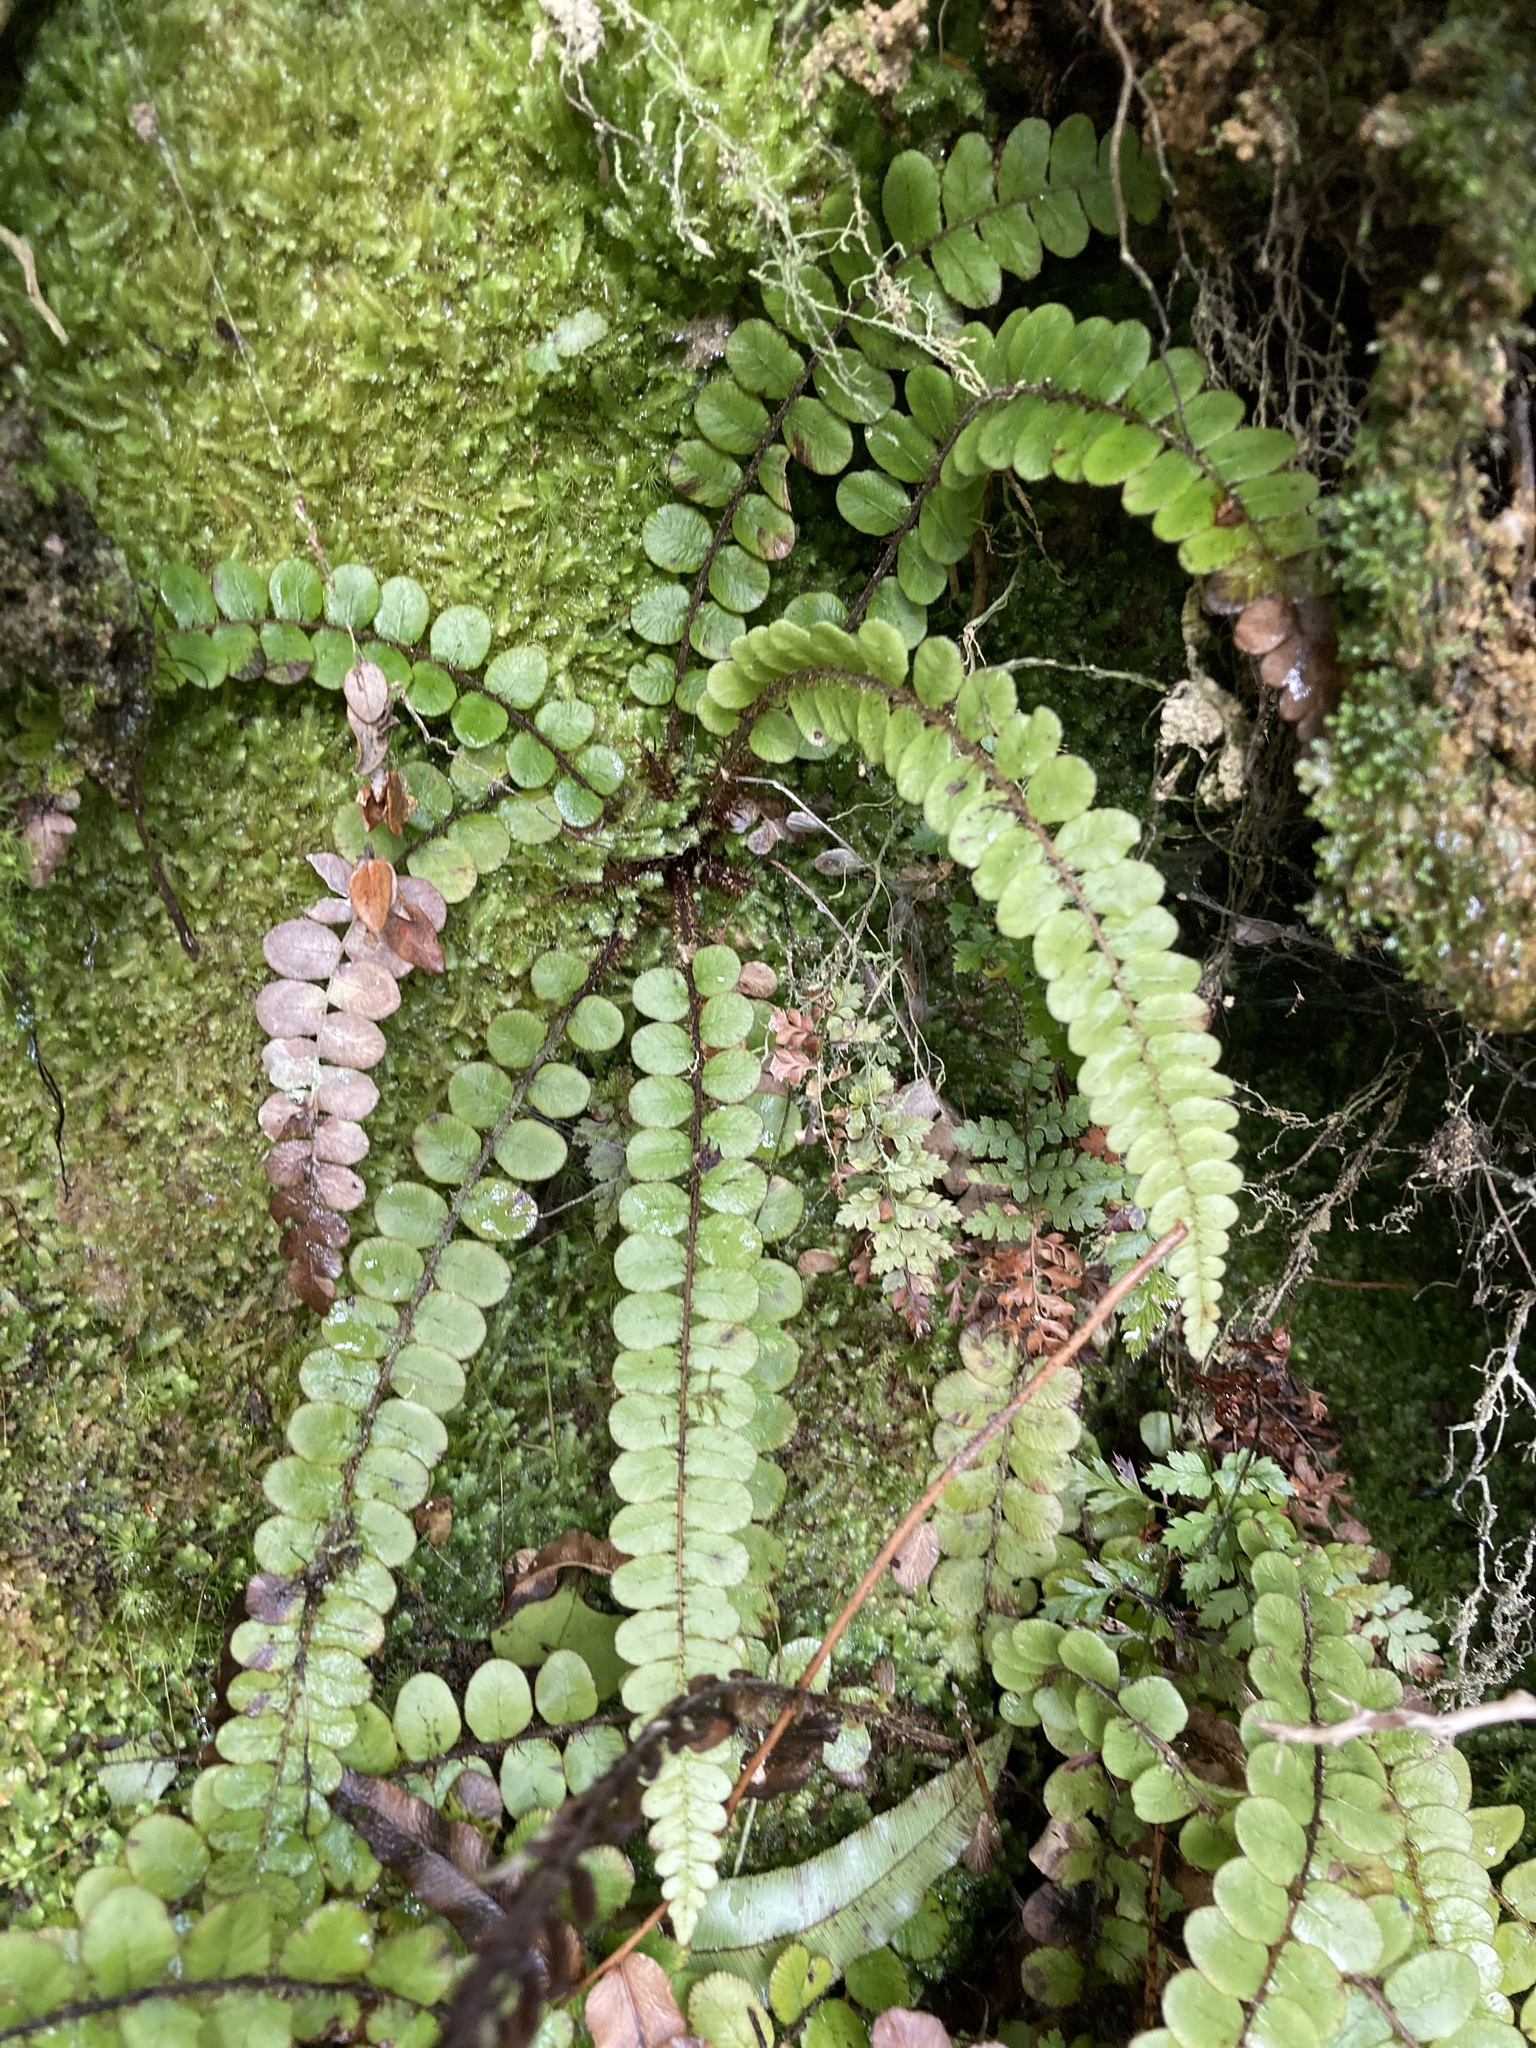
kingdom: Plantae
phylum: Tracheophyta
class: Polypodiopsida
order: Polypodiales
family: Blechnaceae
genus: Cranfillia
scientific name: Cranfillia fluviatilis
